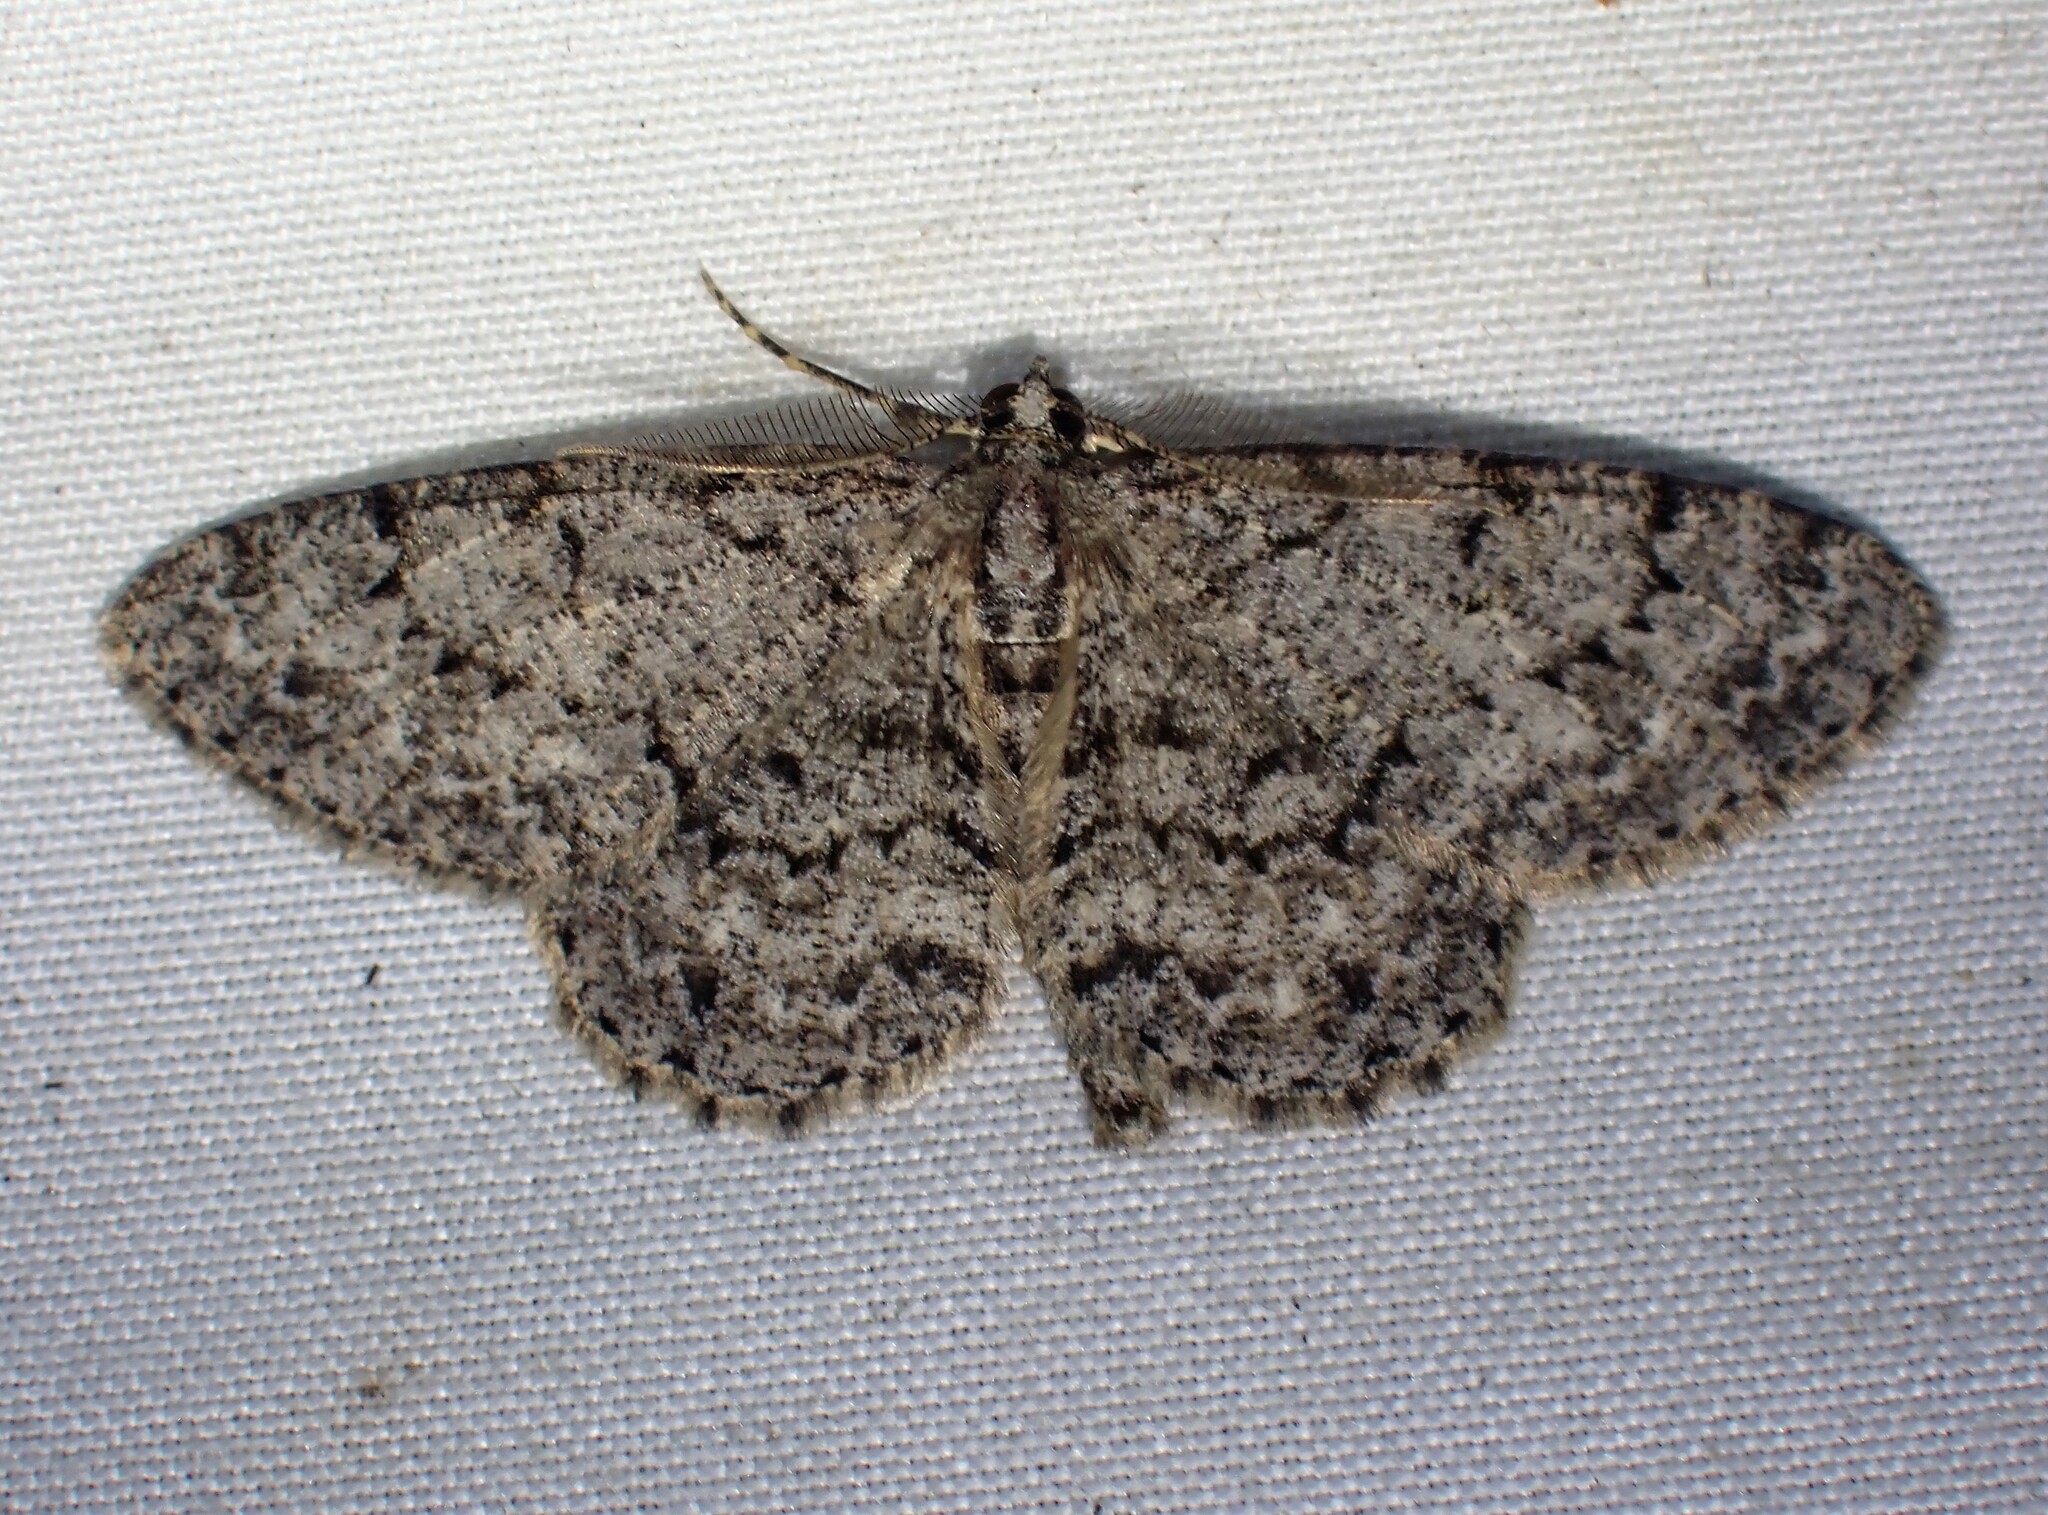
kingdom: Animalia
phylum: Arthropoda
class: Insecta
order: Lepidoptera
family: Geometridae
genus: Protoboarmia
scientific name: Protoboarmia porcelaria
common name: Porcelain gray
